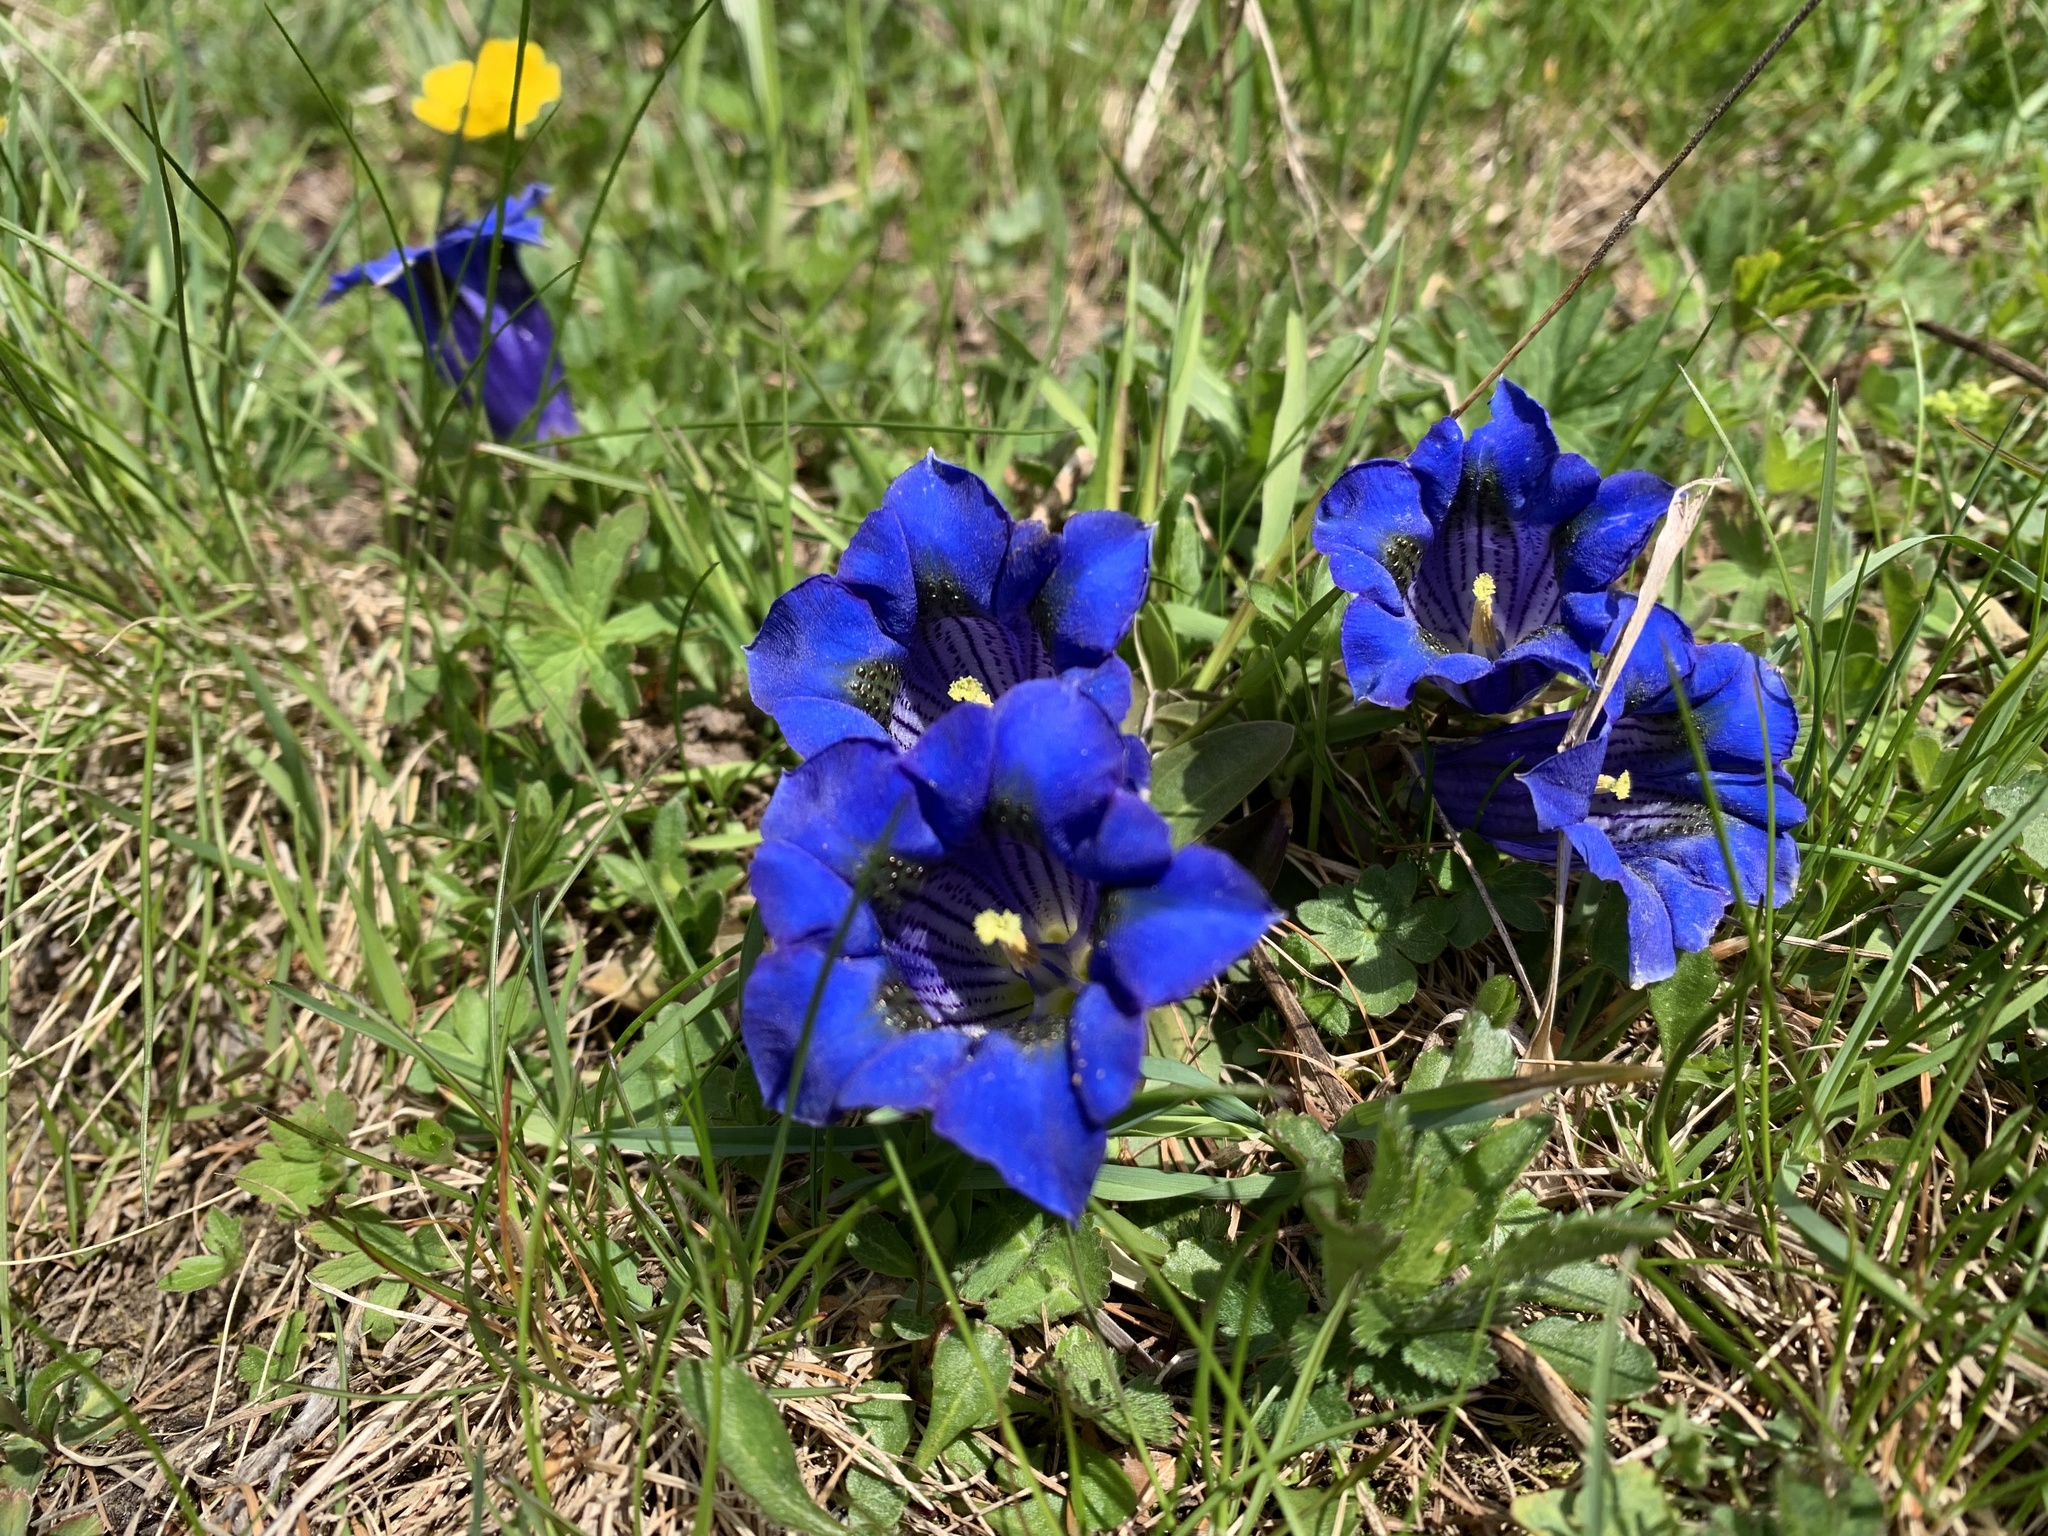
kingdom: Plantae
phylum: Tracheophyta
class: Magnoliopsida
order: Gentianales
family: Gentianaceae
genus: Gentiana
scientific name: Gentiana acaulis
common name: Trumpet gentian
